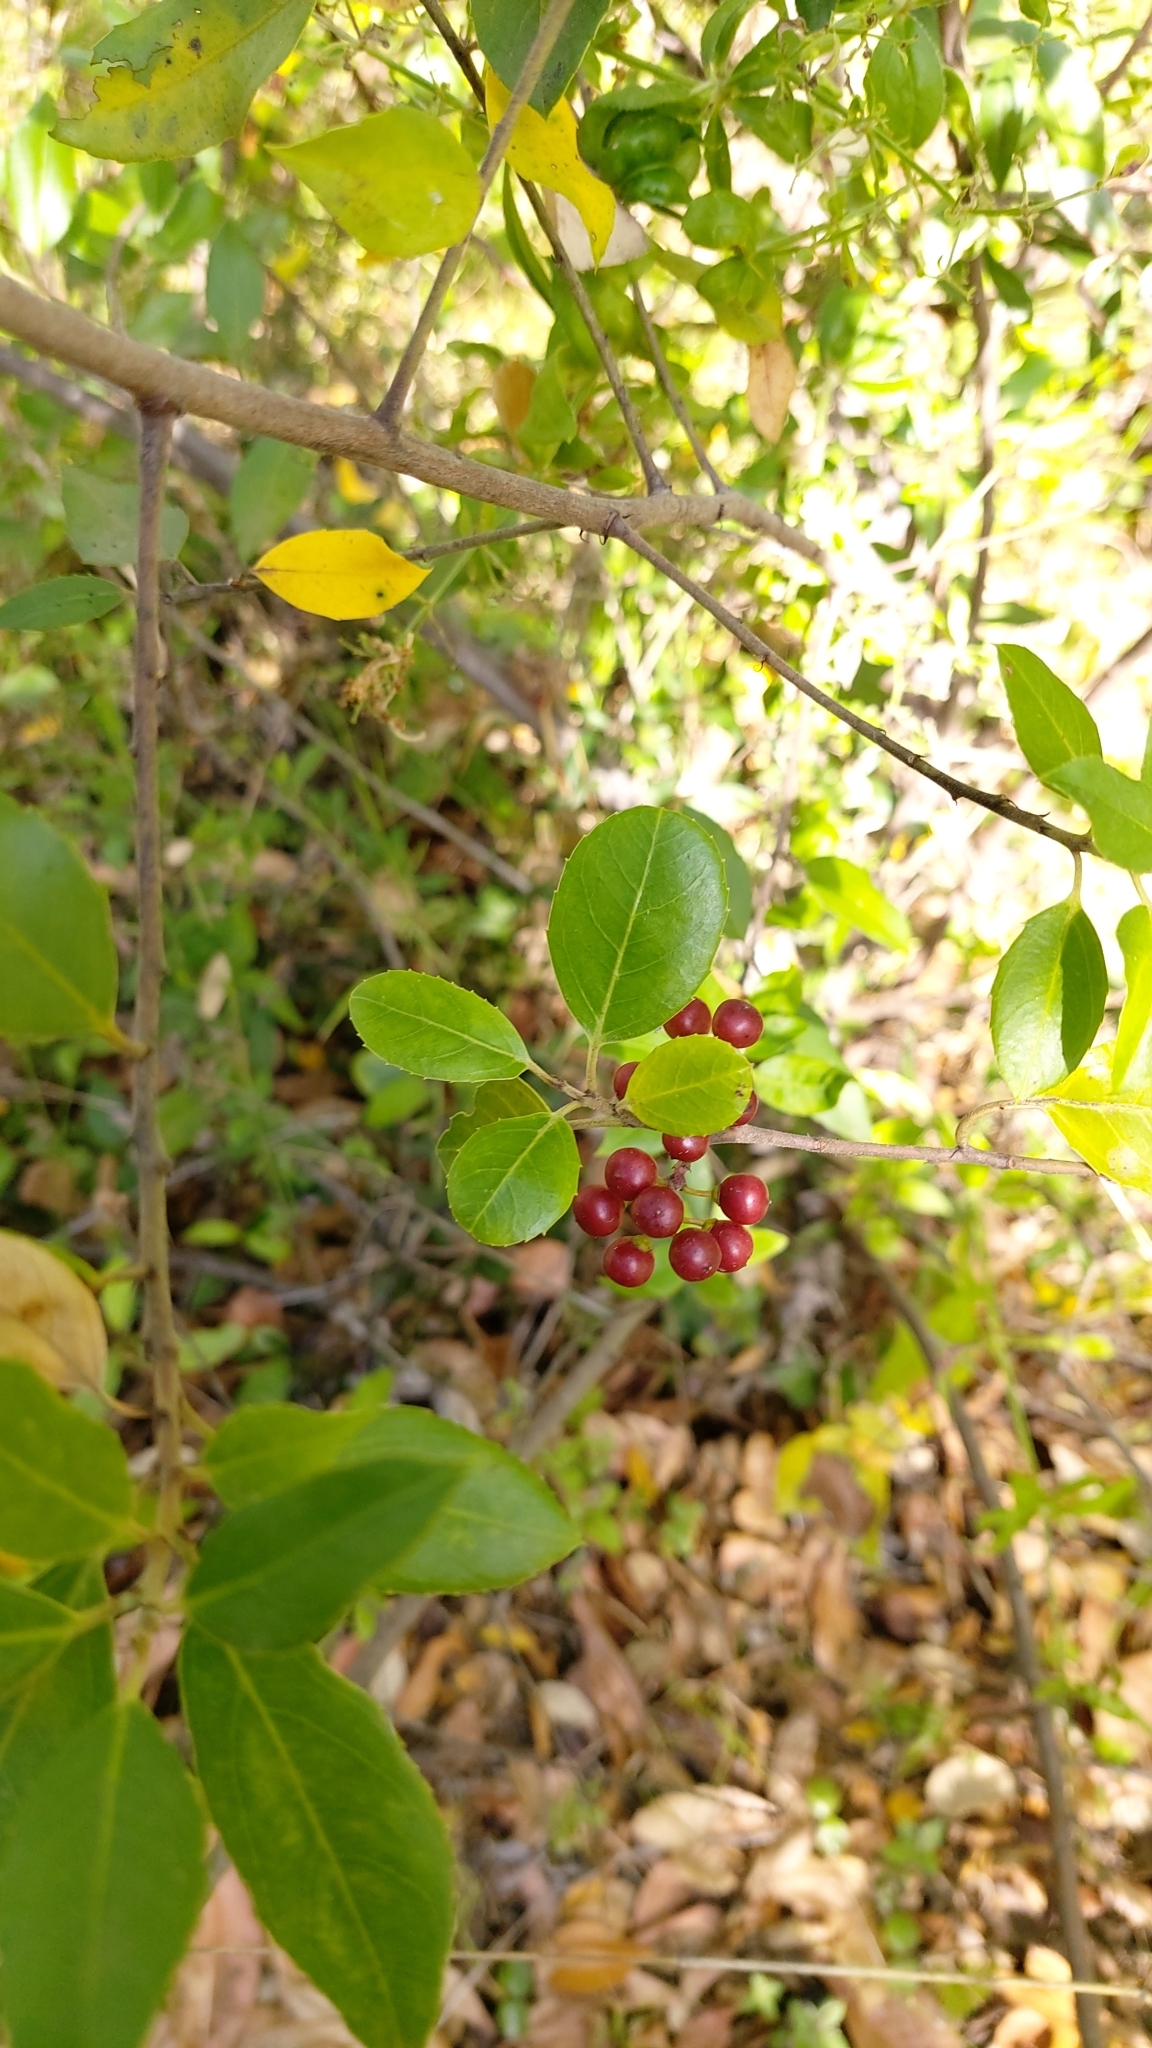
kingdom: Plantae
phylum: Tracheophyta
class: Magnoliopsida
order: Rosales
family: Rhamnaceae
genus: Rhamnus
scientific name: Rhamnus alaternus
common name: Mediterranean buckthorn
